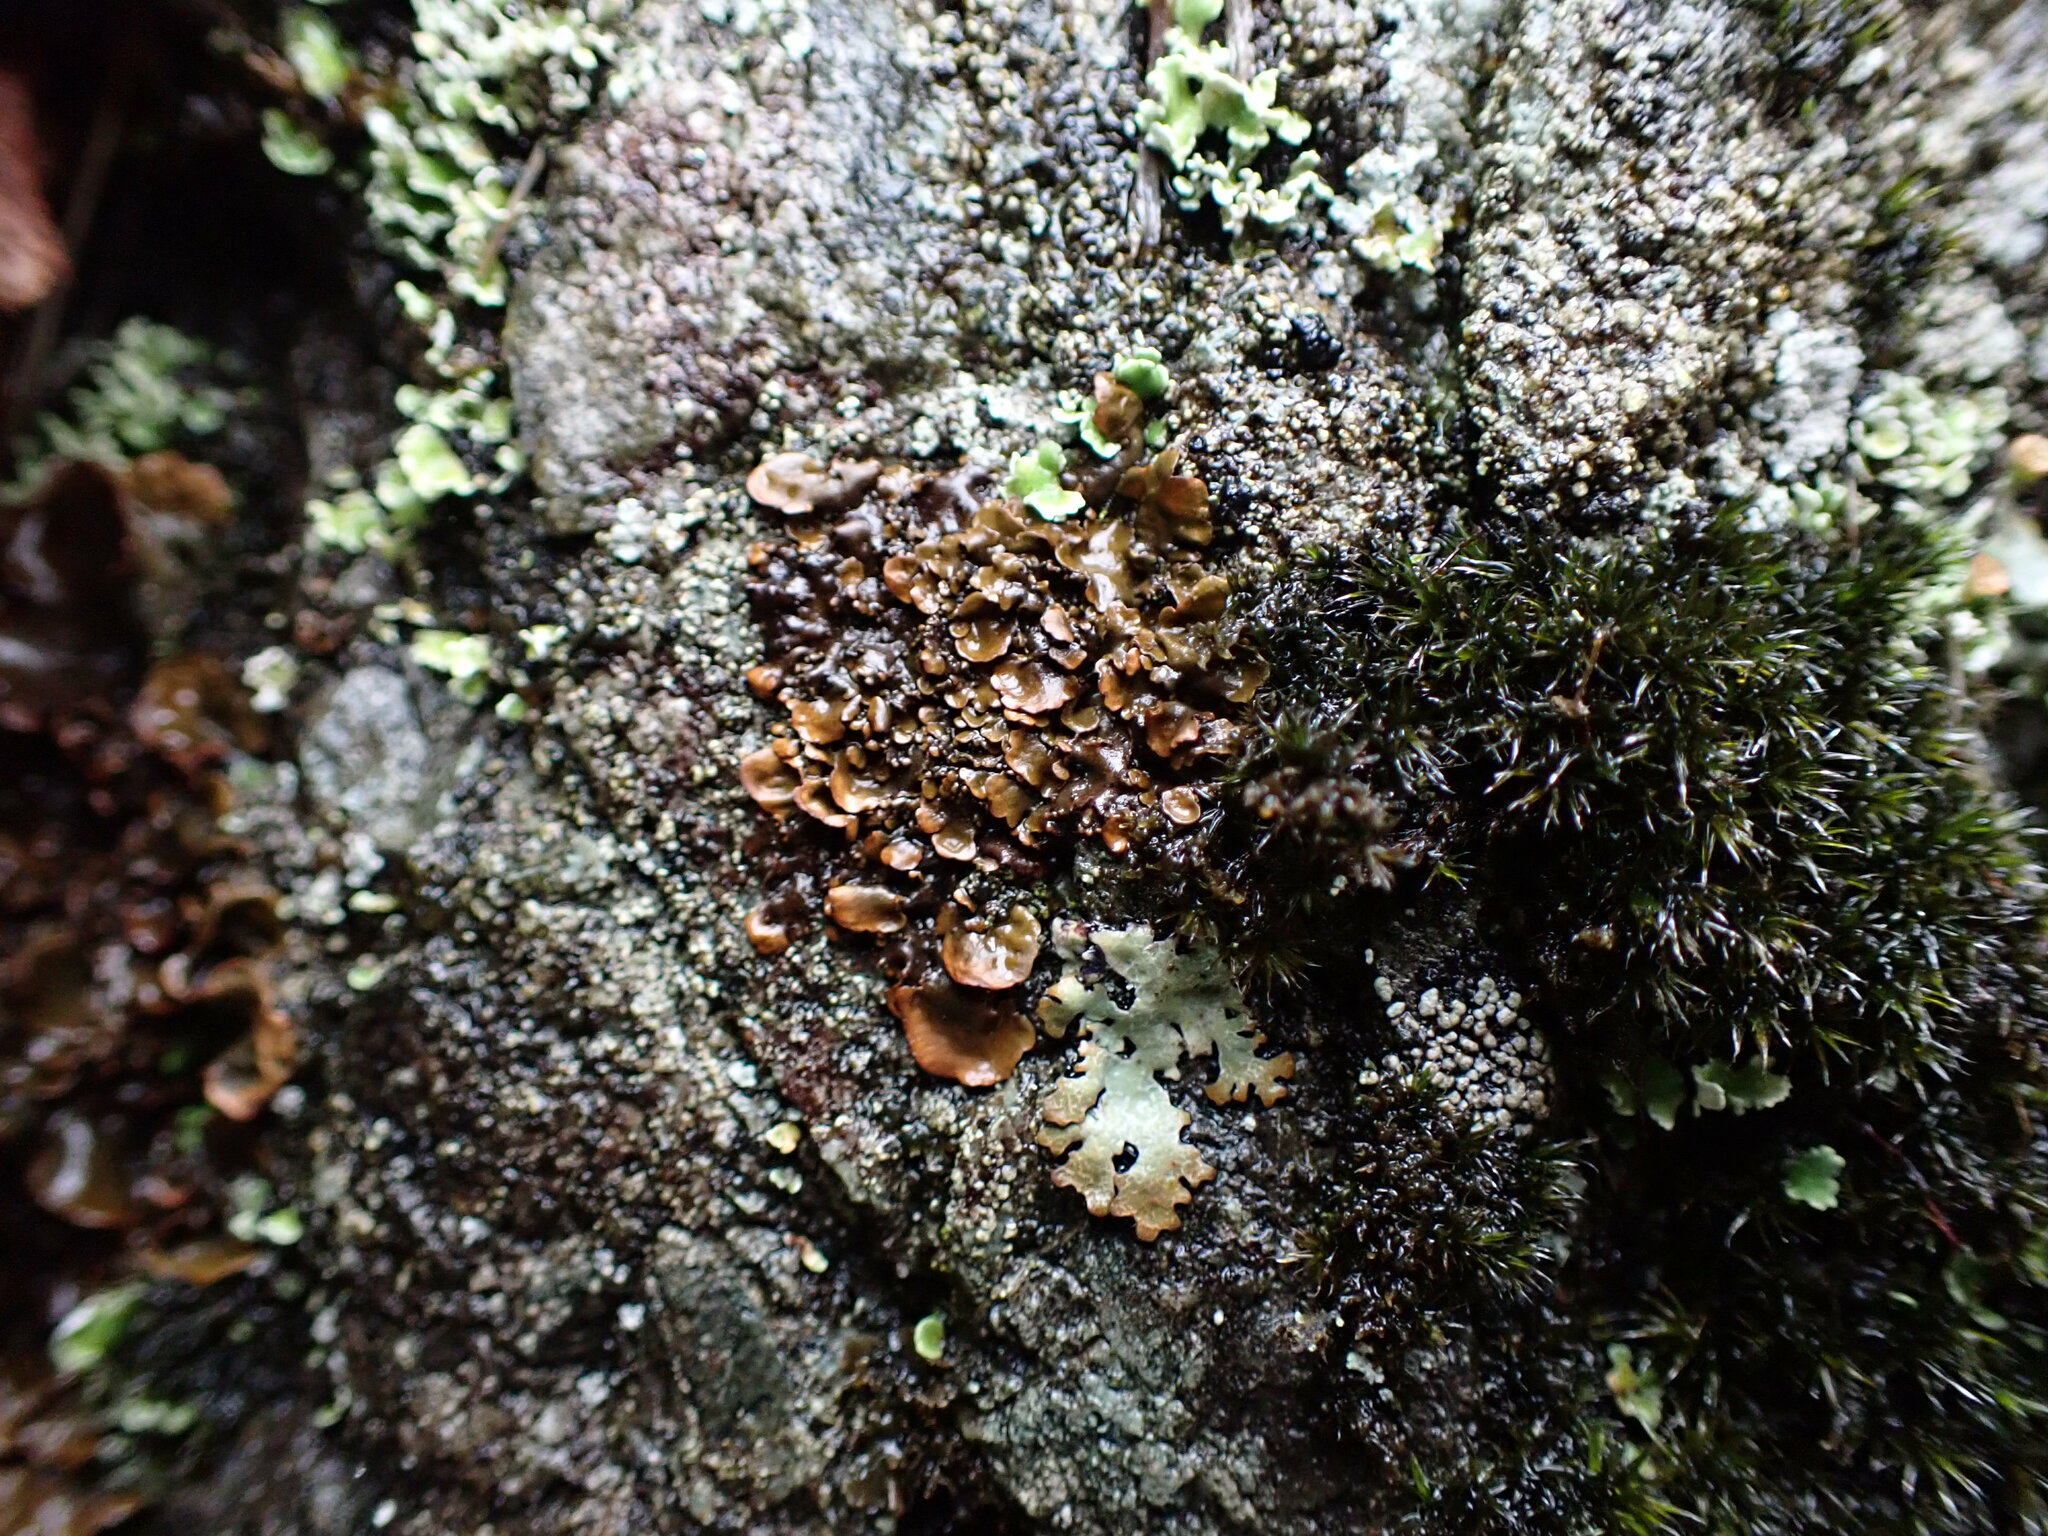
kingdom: Fungi
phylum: Ascomycota
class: Lecanoromycetes
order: Peltigerales
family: Nephromataceae
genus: Nephroma
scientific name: Nephroma laevigatum
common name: Mustard kidney lichen
